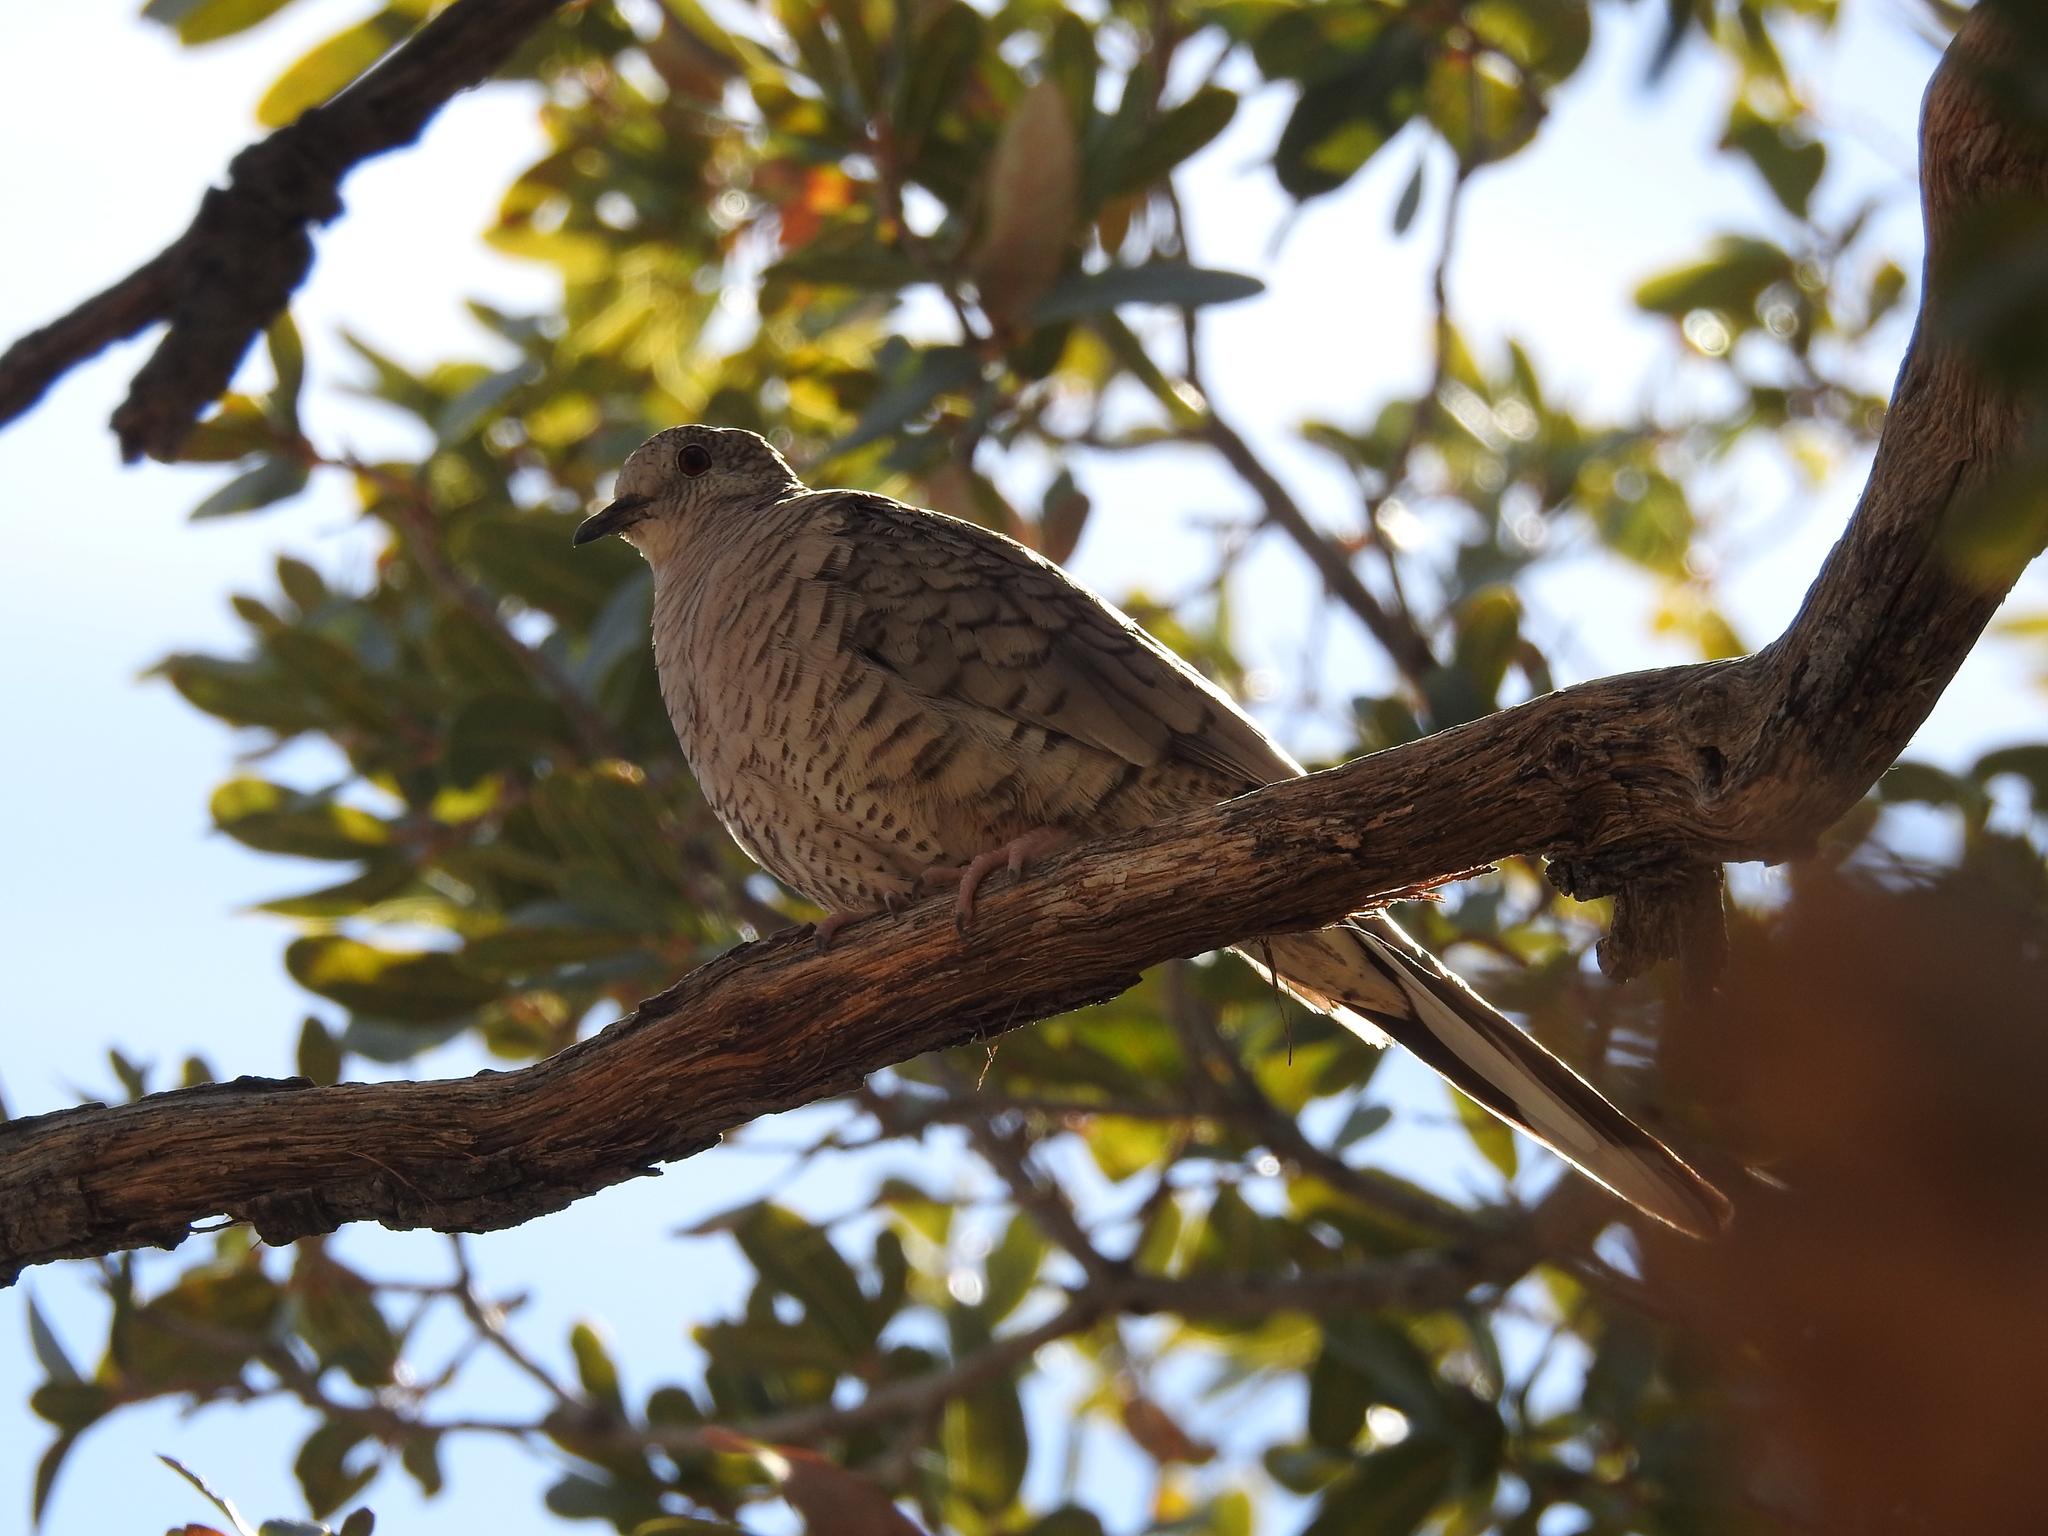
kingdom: Animalia
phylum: Chordata
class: Aves
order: Columbiformes
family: Columbidae
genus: Columbina
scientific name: Columbina inca
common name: Inca dove
